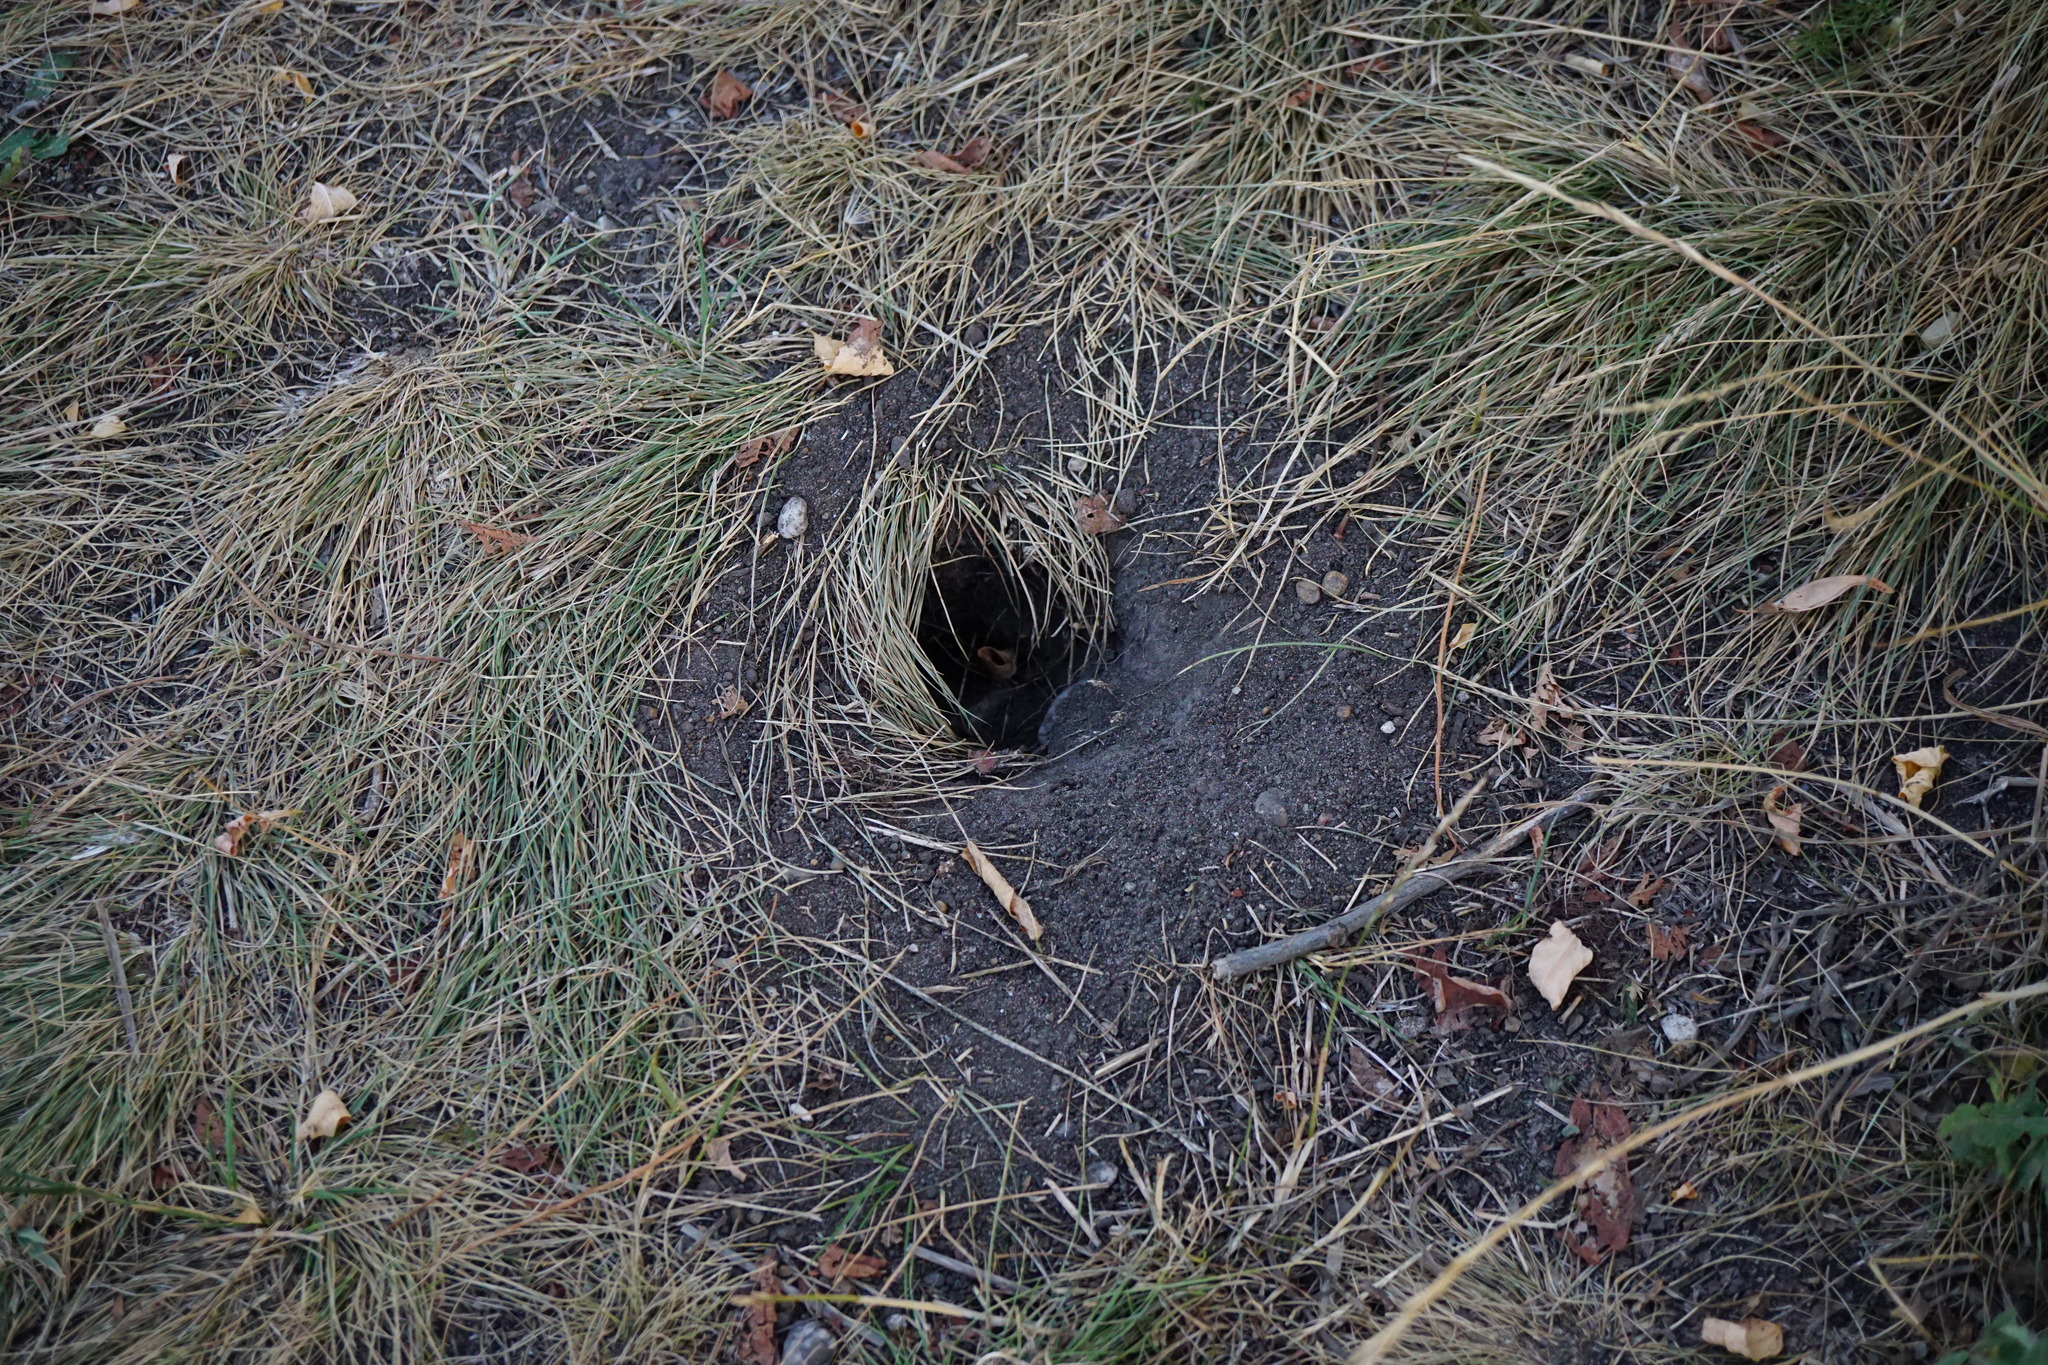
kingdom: Animalia
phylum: Chordata
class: Mammalia
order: Rodentia
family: Sciuridae
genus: Spermophilus
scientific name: Spermophilus citellus
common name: European ground squirrel
